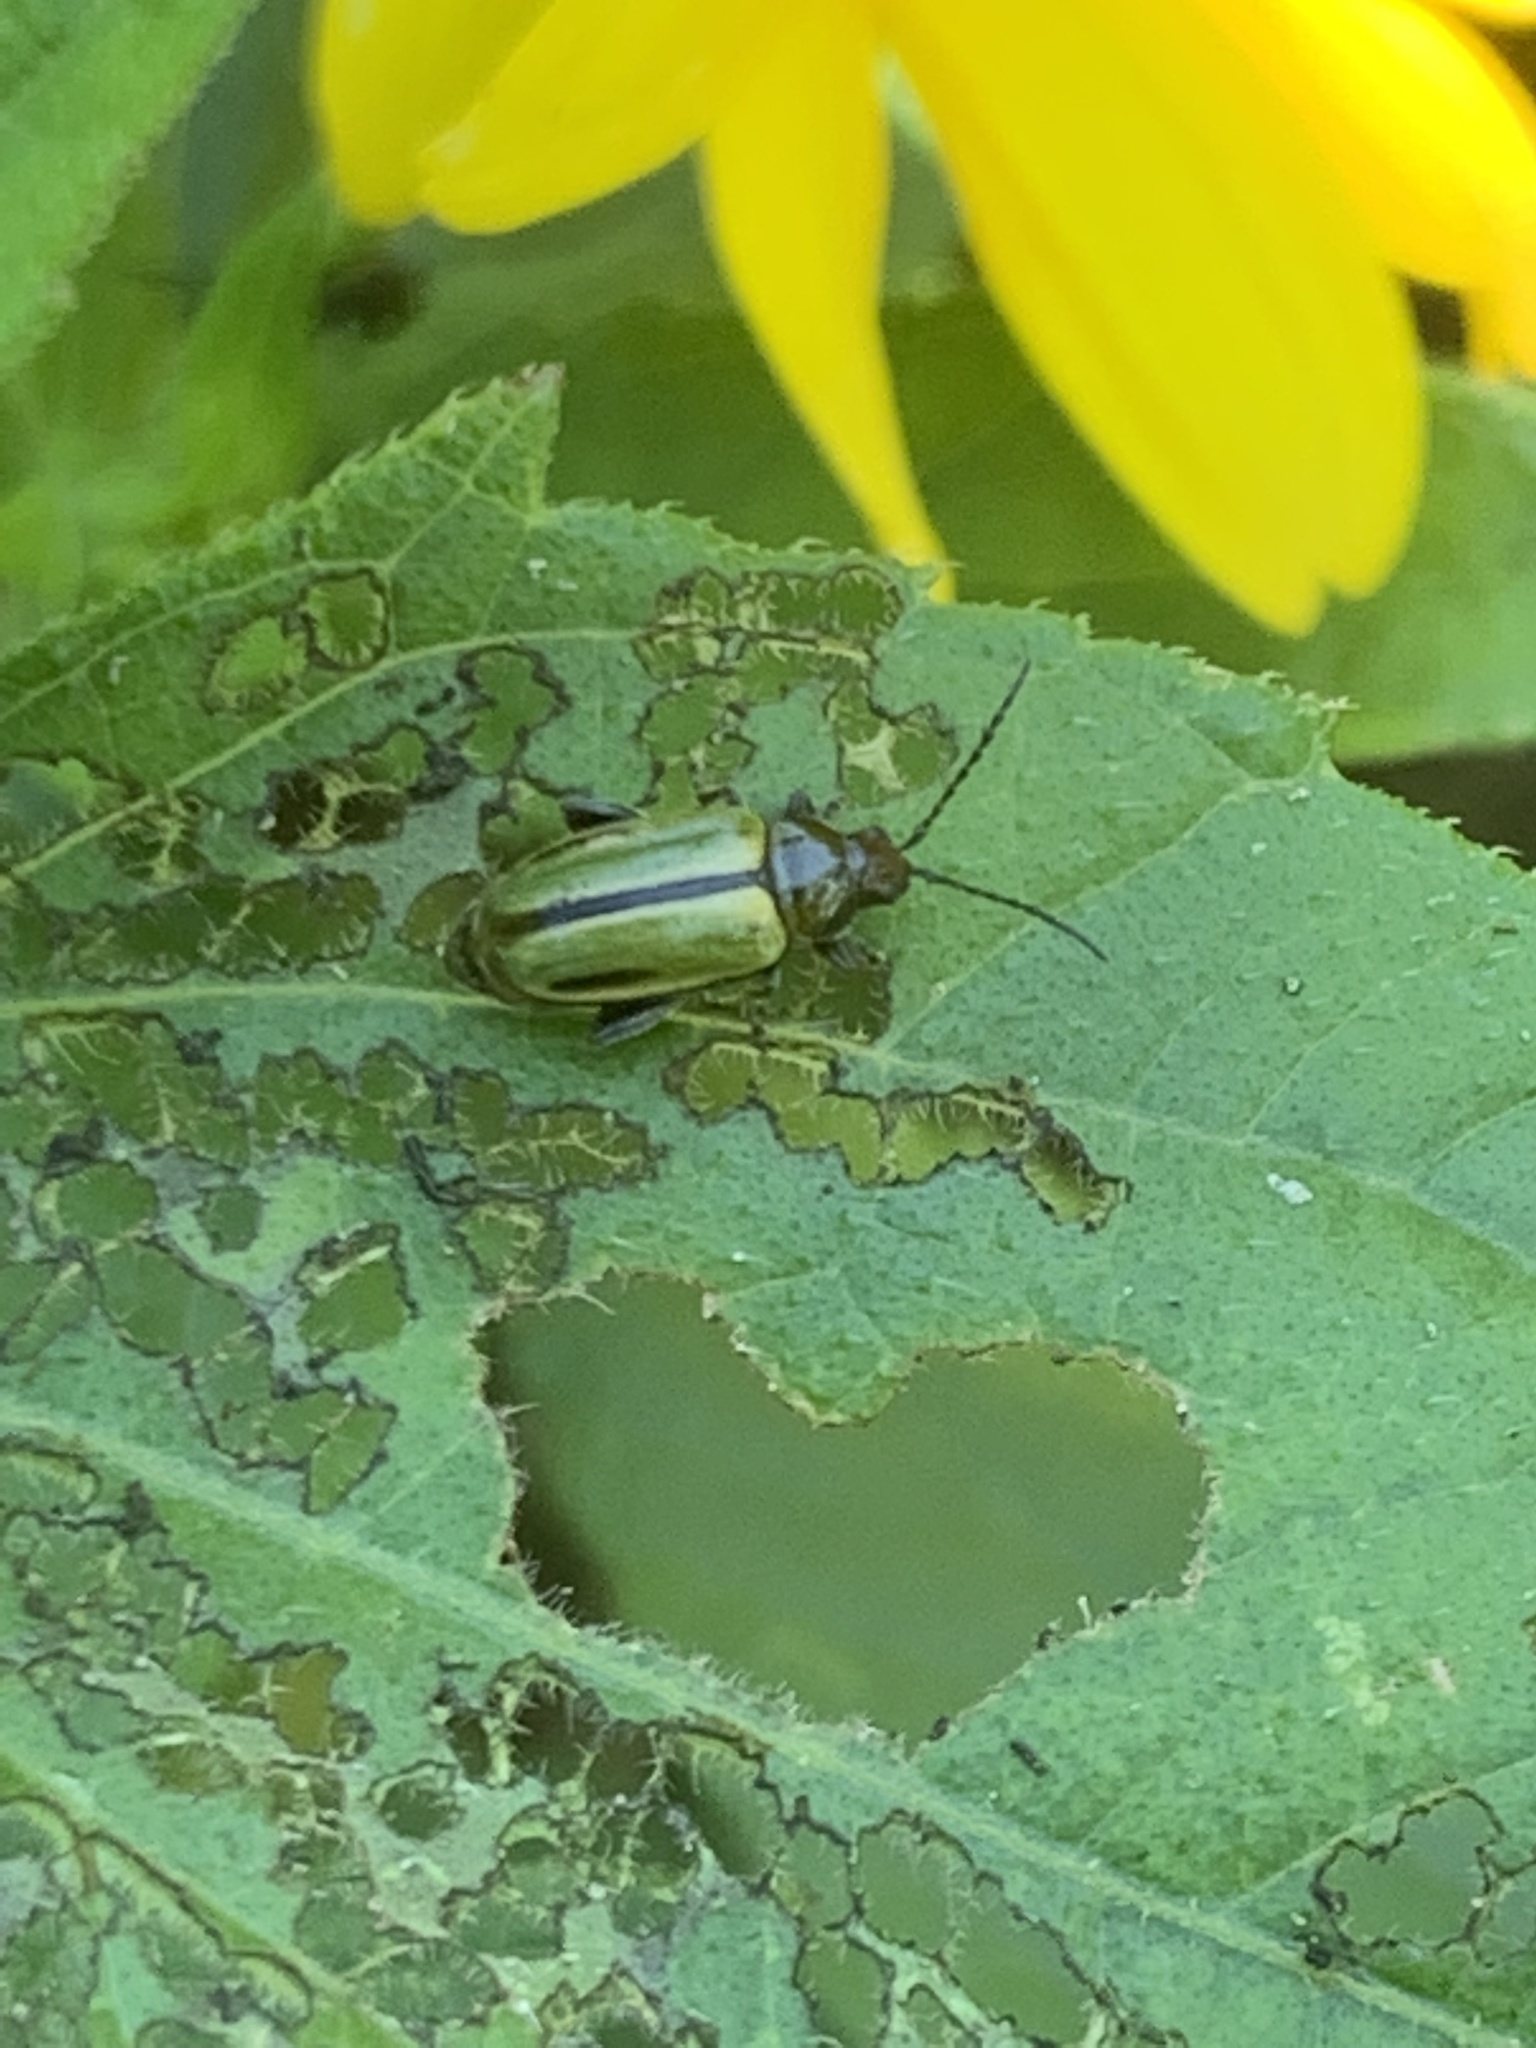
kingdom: Animalia
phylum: Arthropoda
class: Insecta
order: Coleoptera
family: Chrysomelidae
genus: Disonychodes
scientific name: Disonychodes
